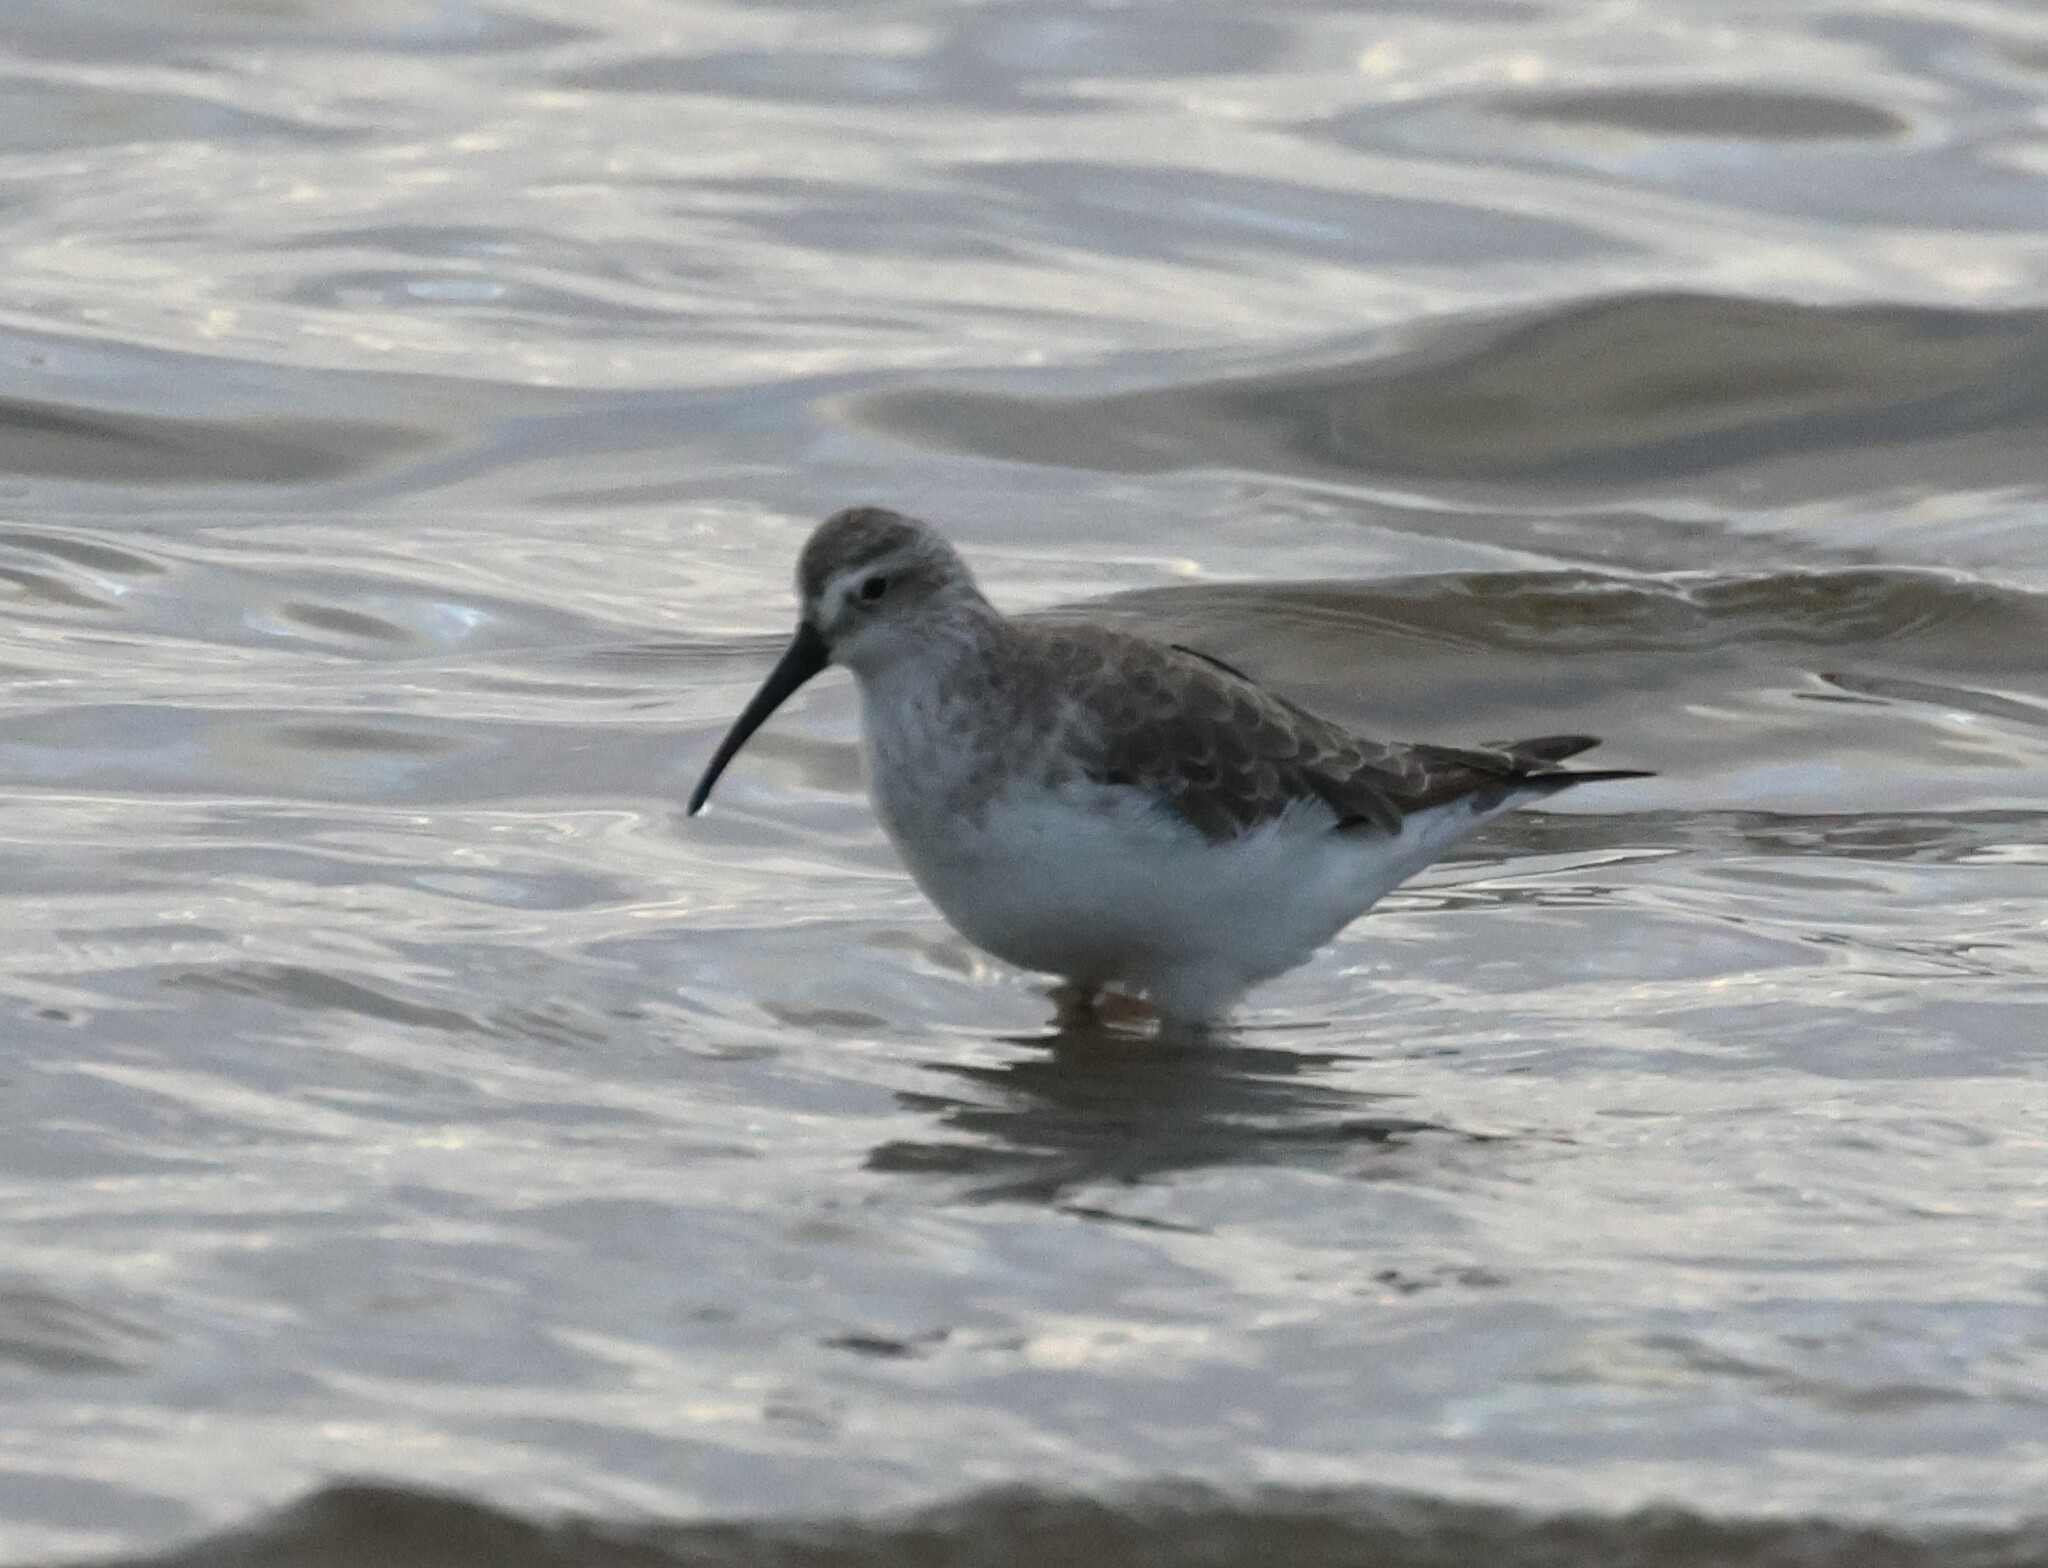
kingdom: Animalia
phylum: Chordata
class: Aves
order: Charadriiformes
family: Scolopacidae
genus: Calidris
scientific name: Calidris ferruginea
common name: Curlew sandpiper
